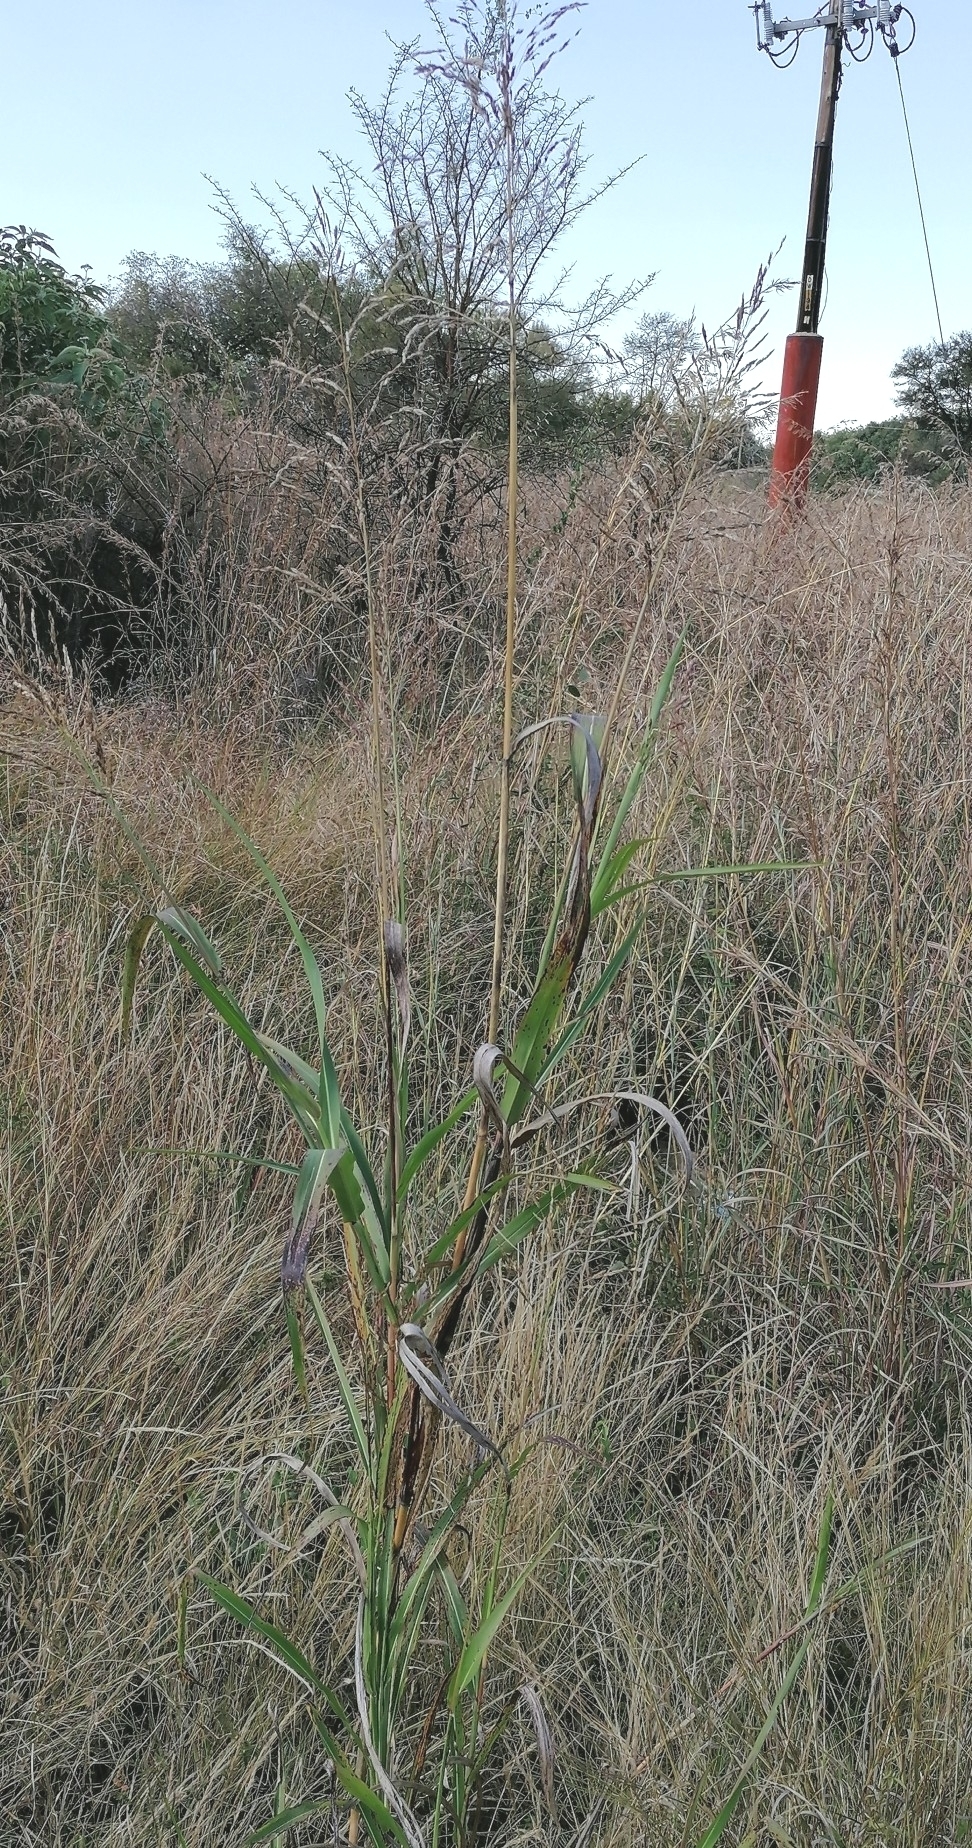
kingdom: Plantae
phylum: Tracheophyta
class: Liliopsida
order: Poales
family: Poaceae
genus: Sorghum
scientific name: Sorghum halepense
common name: Johnson-grass
